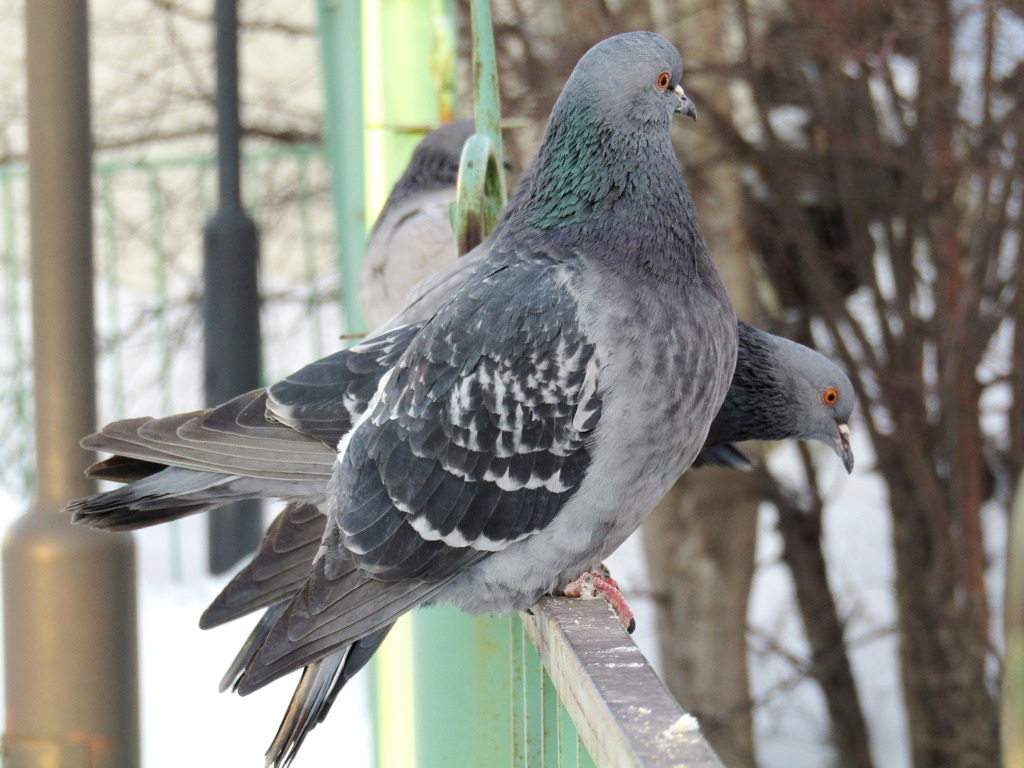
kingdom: Animalia
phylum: Chordata
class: Aves
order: Columbiformes
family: Columbidae
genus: Columba
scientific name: Columba livia
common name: Rock pigeon
